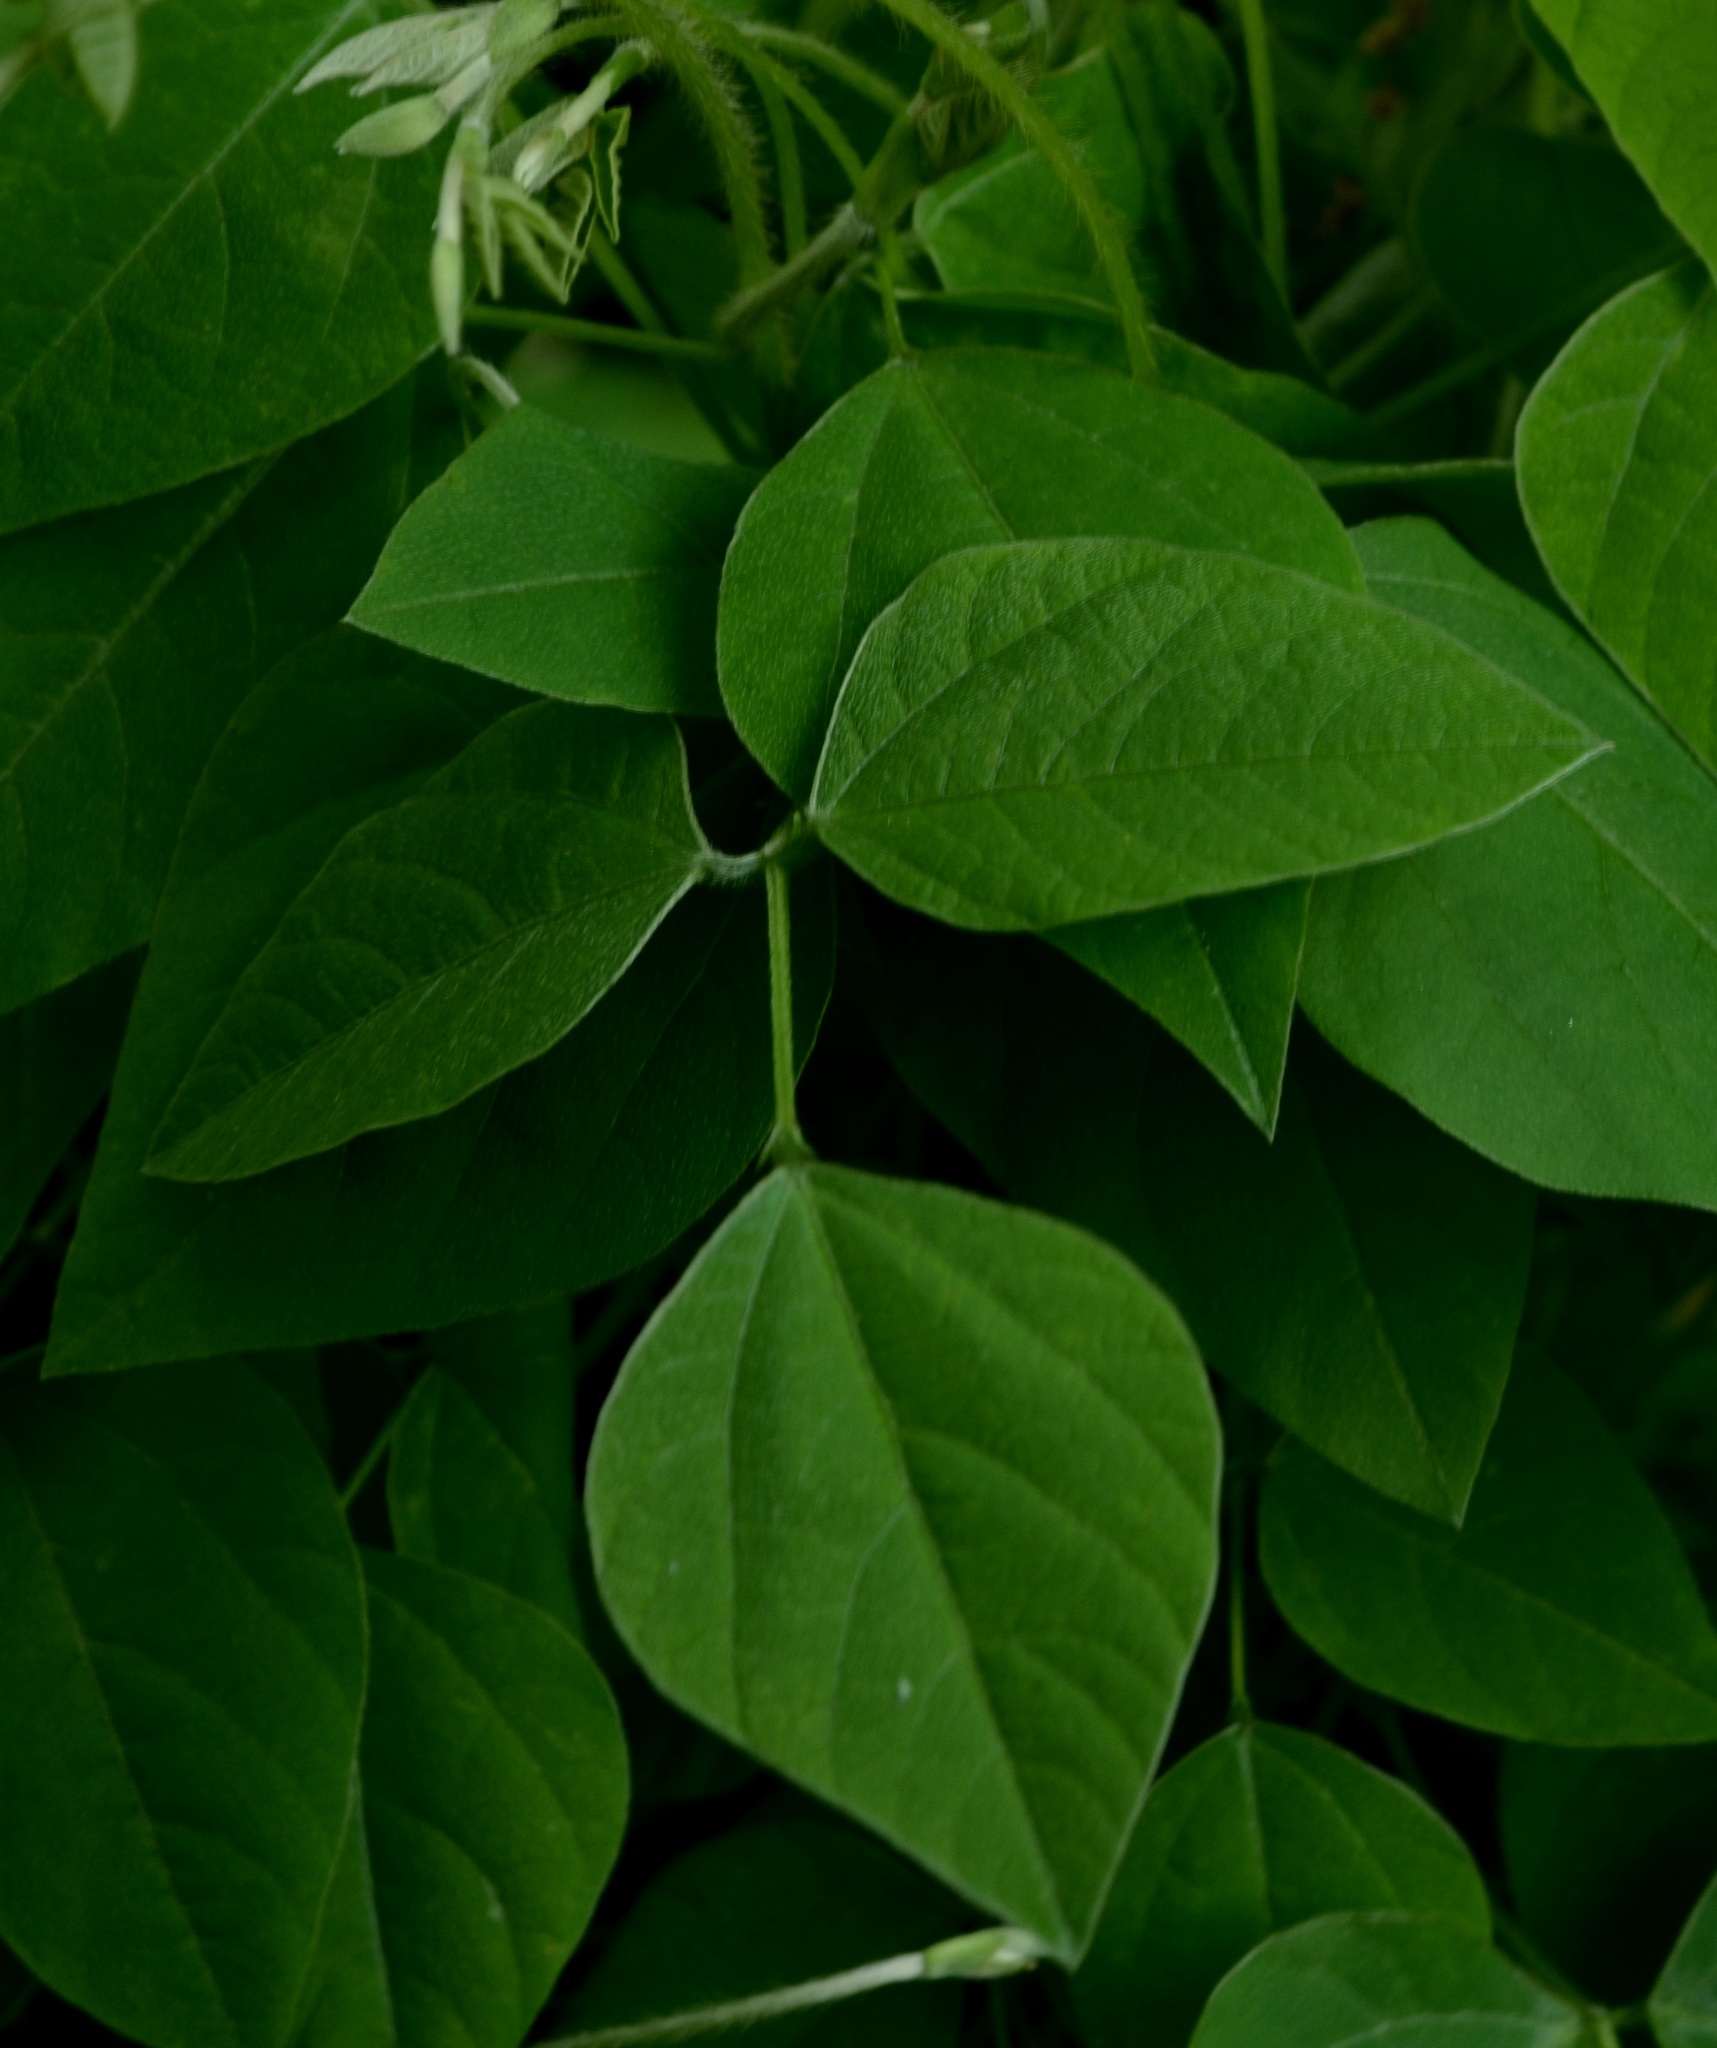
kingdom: Plantae
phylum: Tracheophyta
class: Magnoliopsida
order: Fabales
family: Fabaceae
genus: Amphicarpaea
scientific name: Amphicarpaea bracteata
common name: American hog peanut
